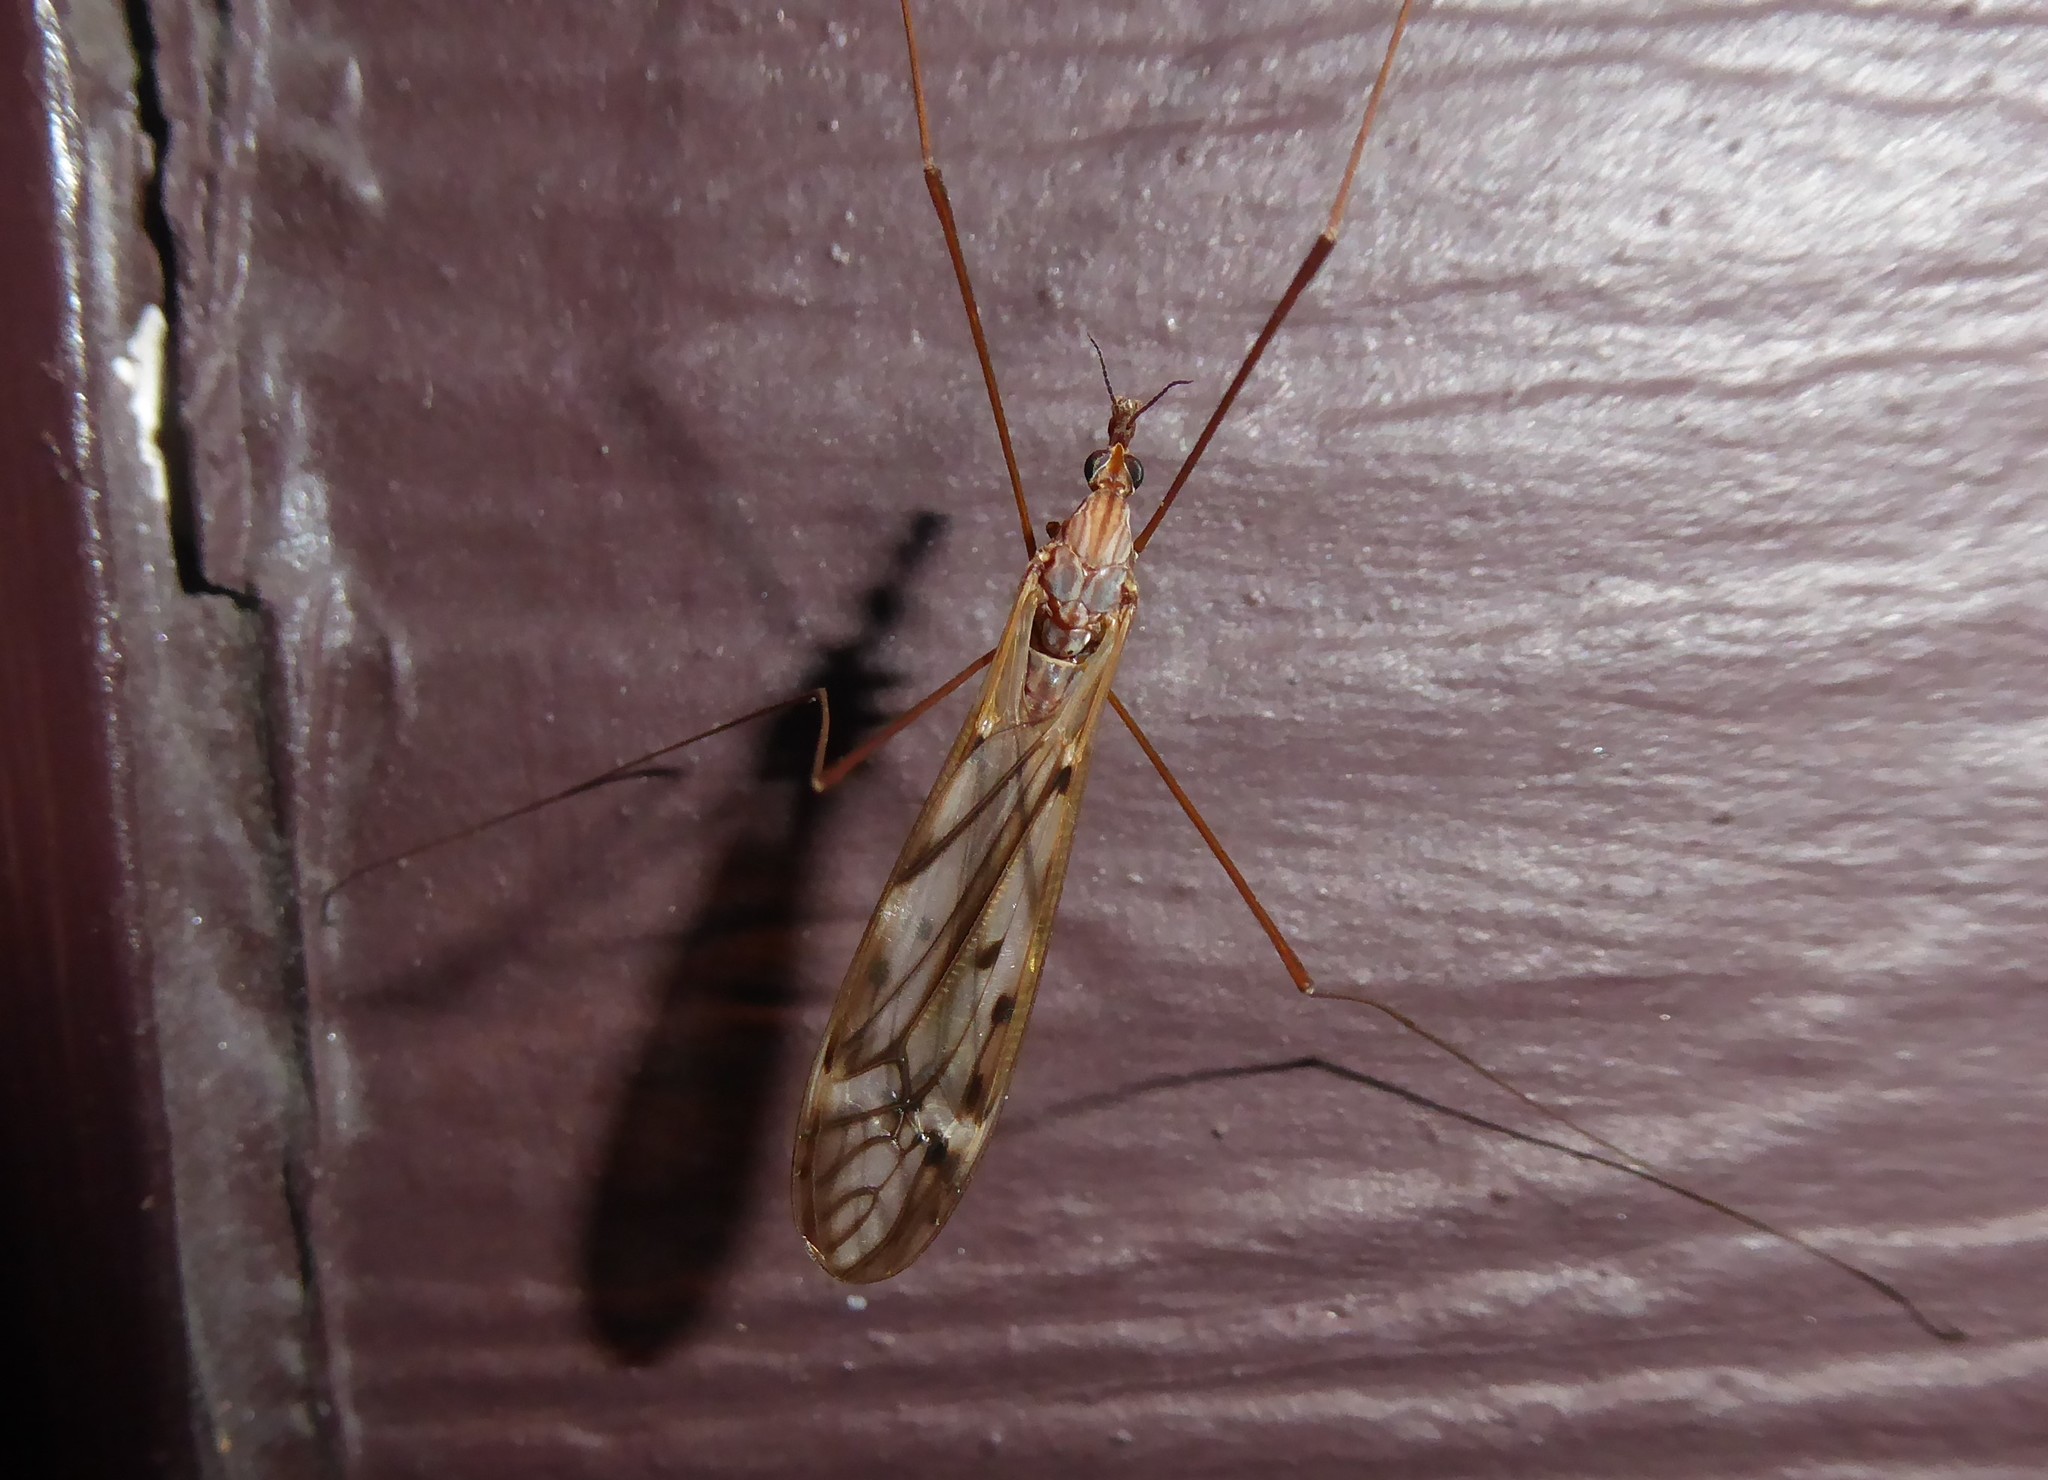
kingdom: Animalia
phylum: Arthropoda
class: Insecta
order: Diptera
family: Tipulidae
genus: Zelandotipula
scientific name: Zelandotipula novarae
